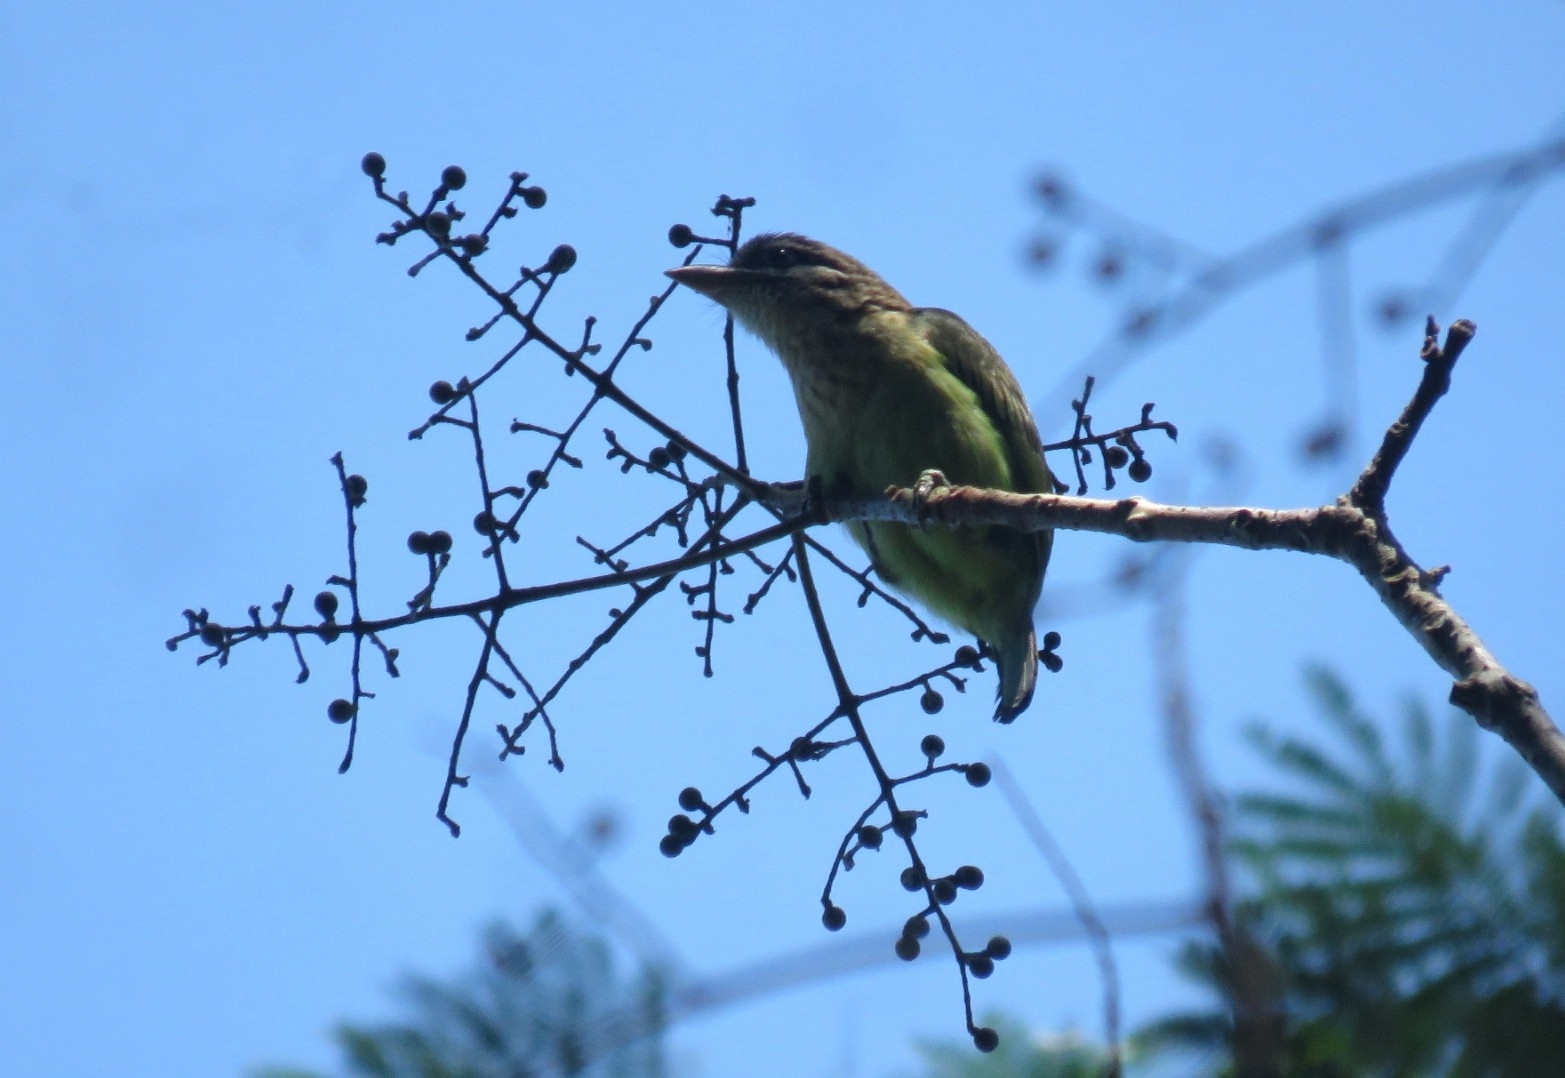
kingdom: Animalia
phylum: Chordata
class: Aves
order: Piciformes
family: Megalaimidae
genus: Psilopogon
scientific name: Psilopogon viridis
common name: White-cheeked barbet
